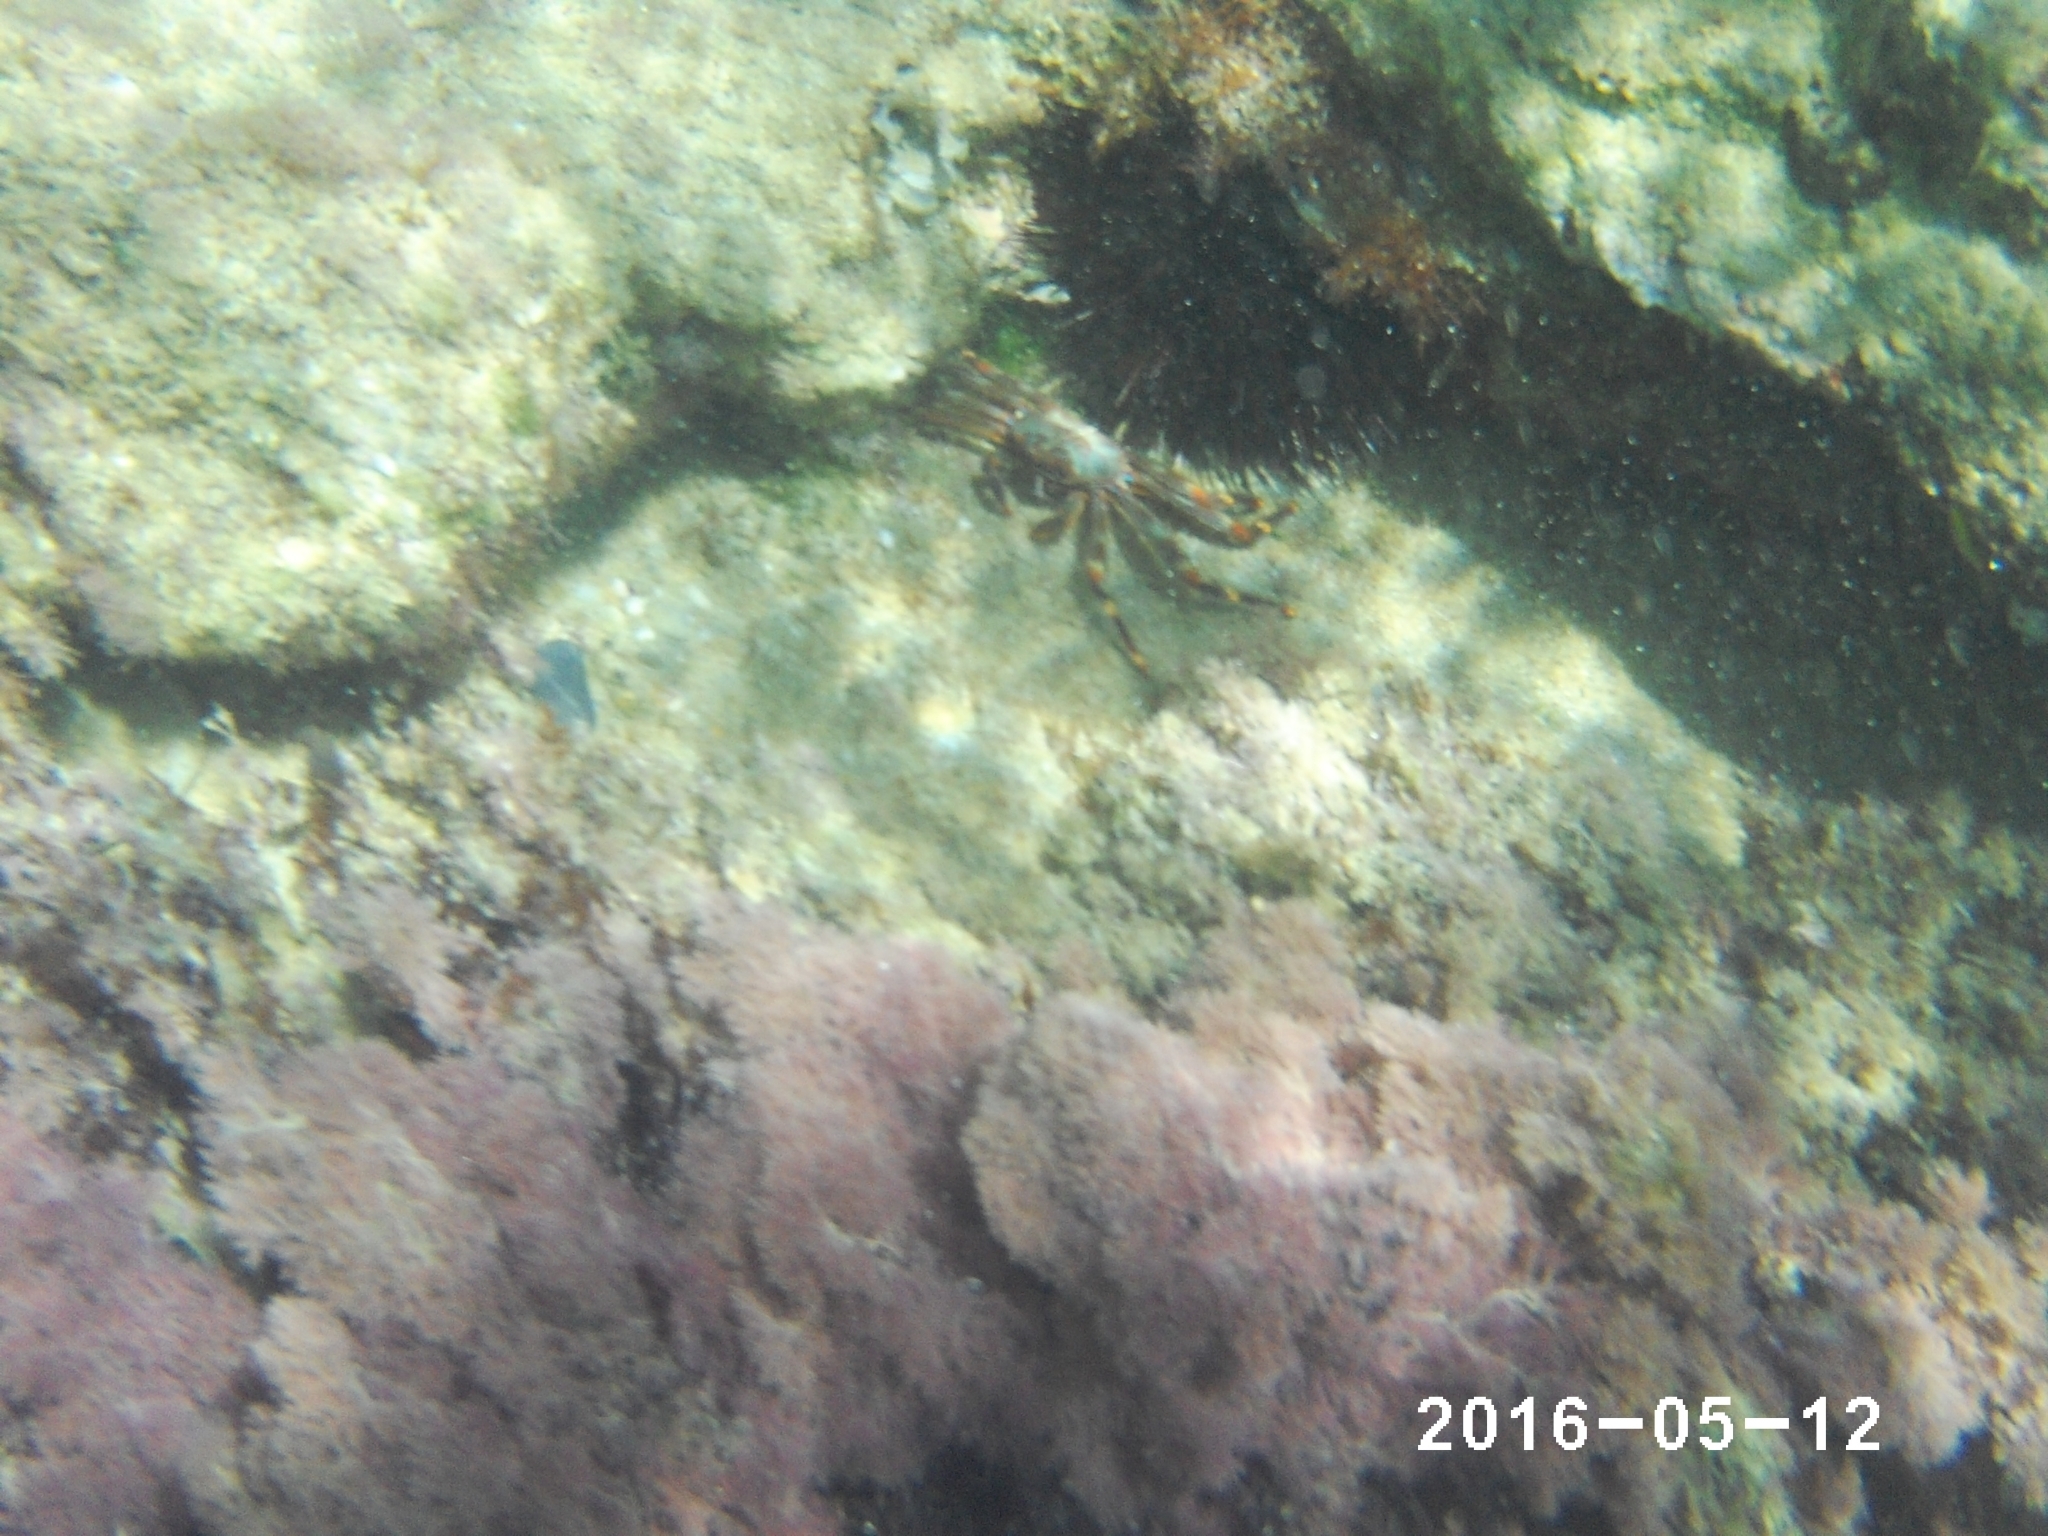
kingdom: Animalia
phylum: Arthropoda
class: Malacostraca
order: Decapoda
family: Percnidae
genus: Percnon
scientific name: Percnon gibbesi
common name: Nimble spray crab
